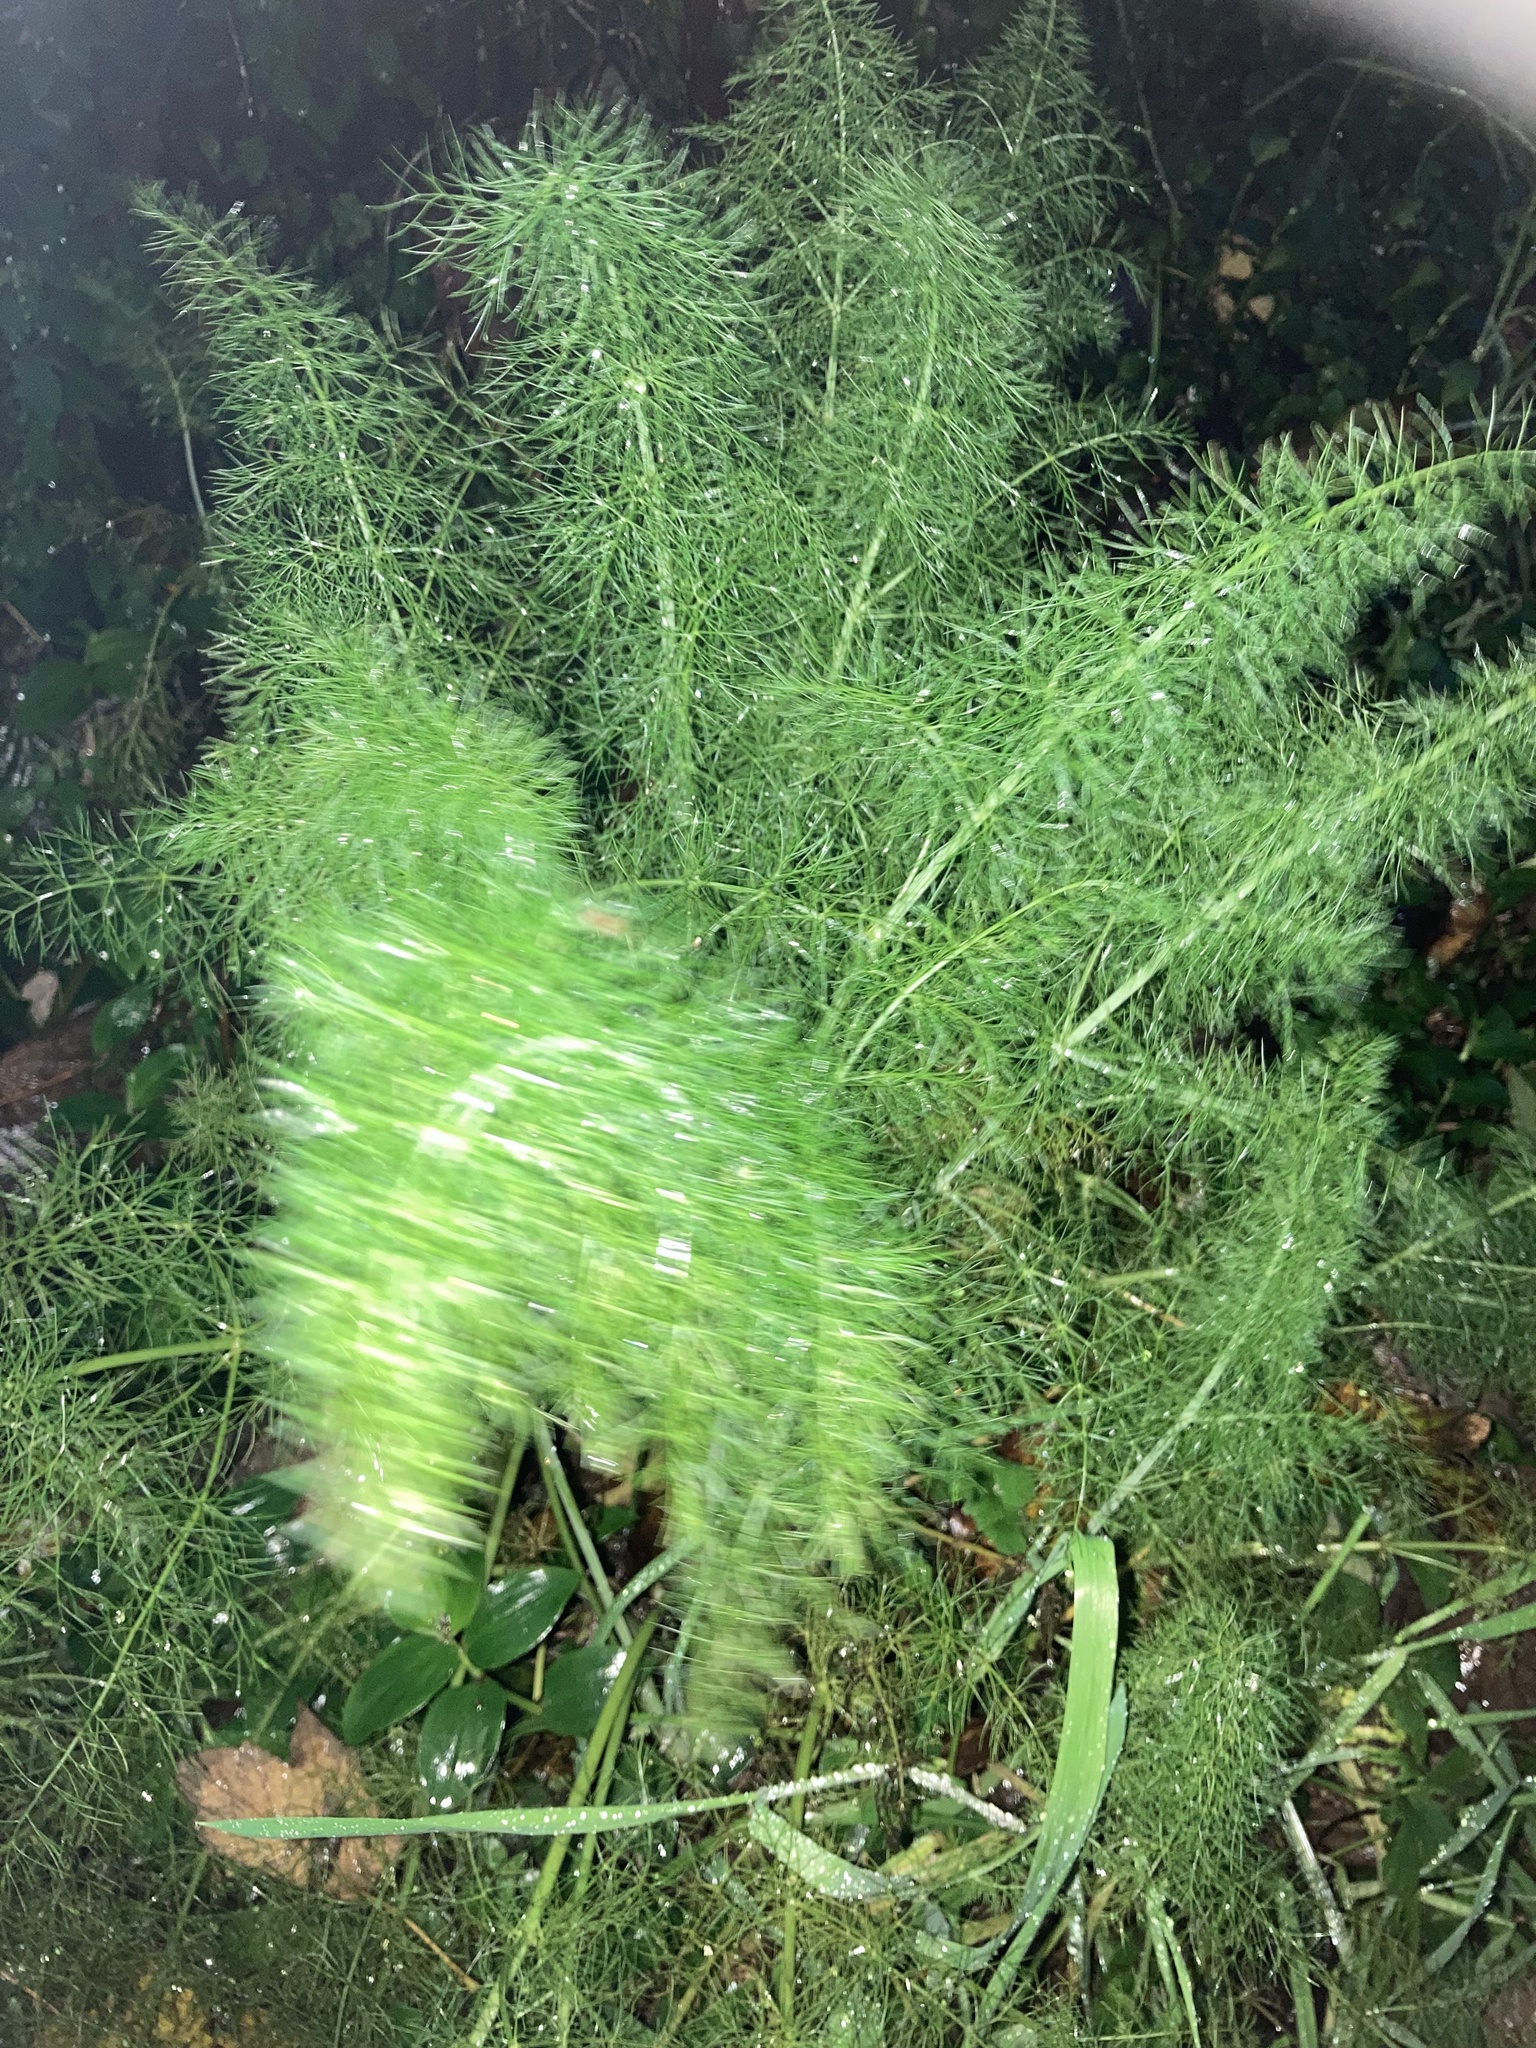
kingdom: Plantae
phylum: Tracheophyta
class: Magnoliopsida
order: Apiales
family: Apiaceae
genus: Foeniculum
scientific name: Foeniculum vulgare
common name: Fennel
